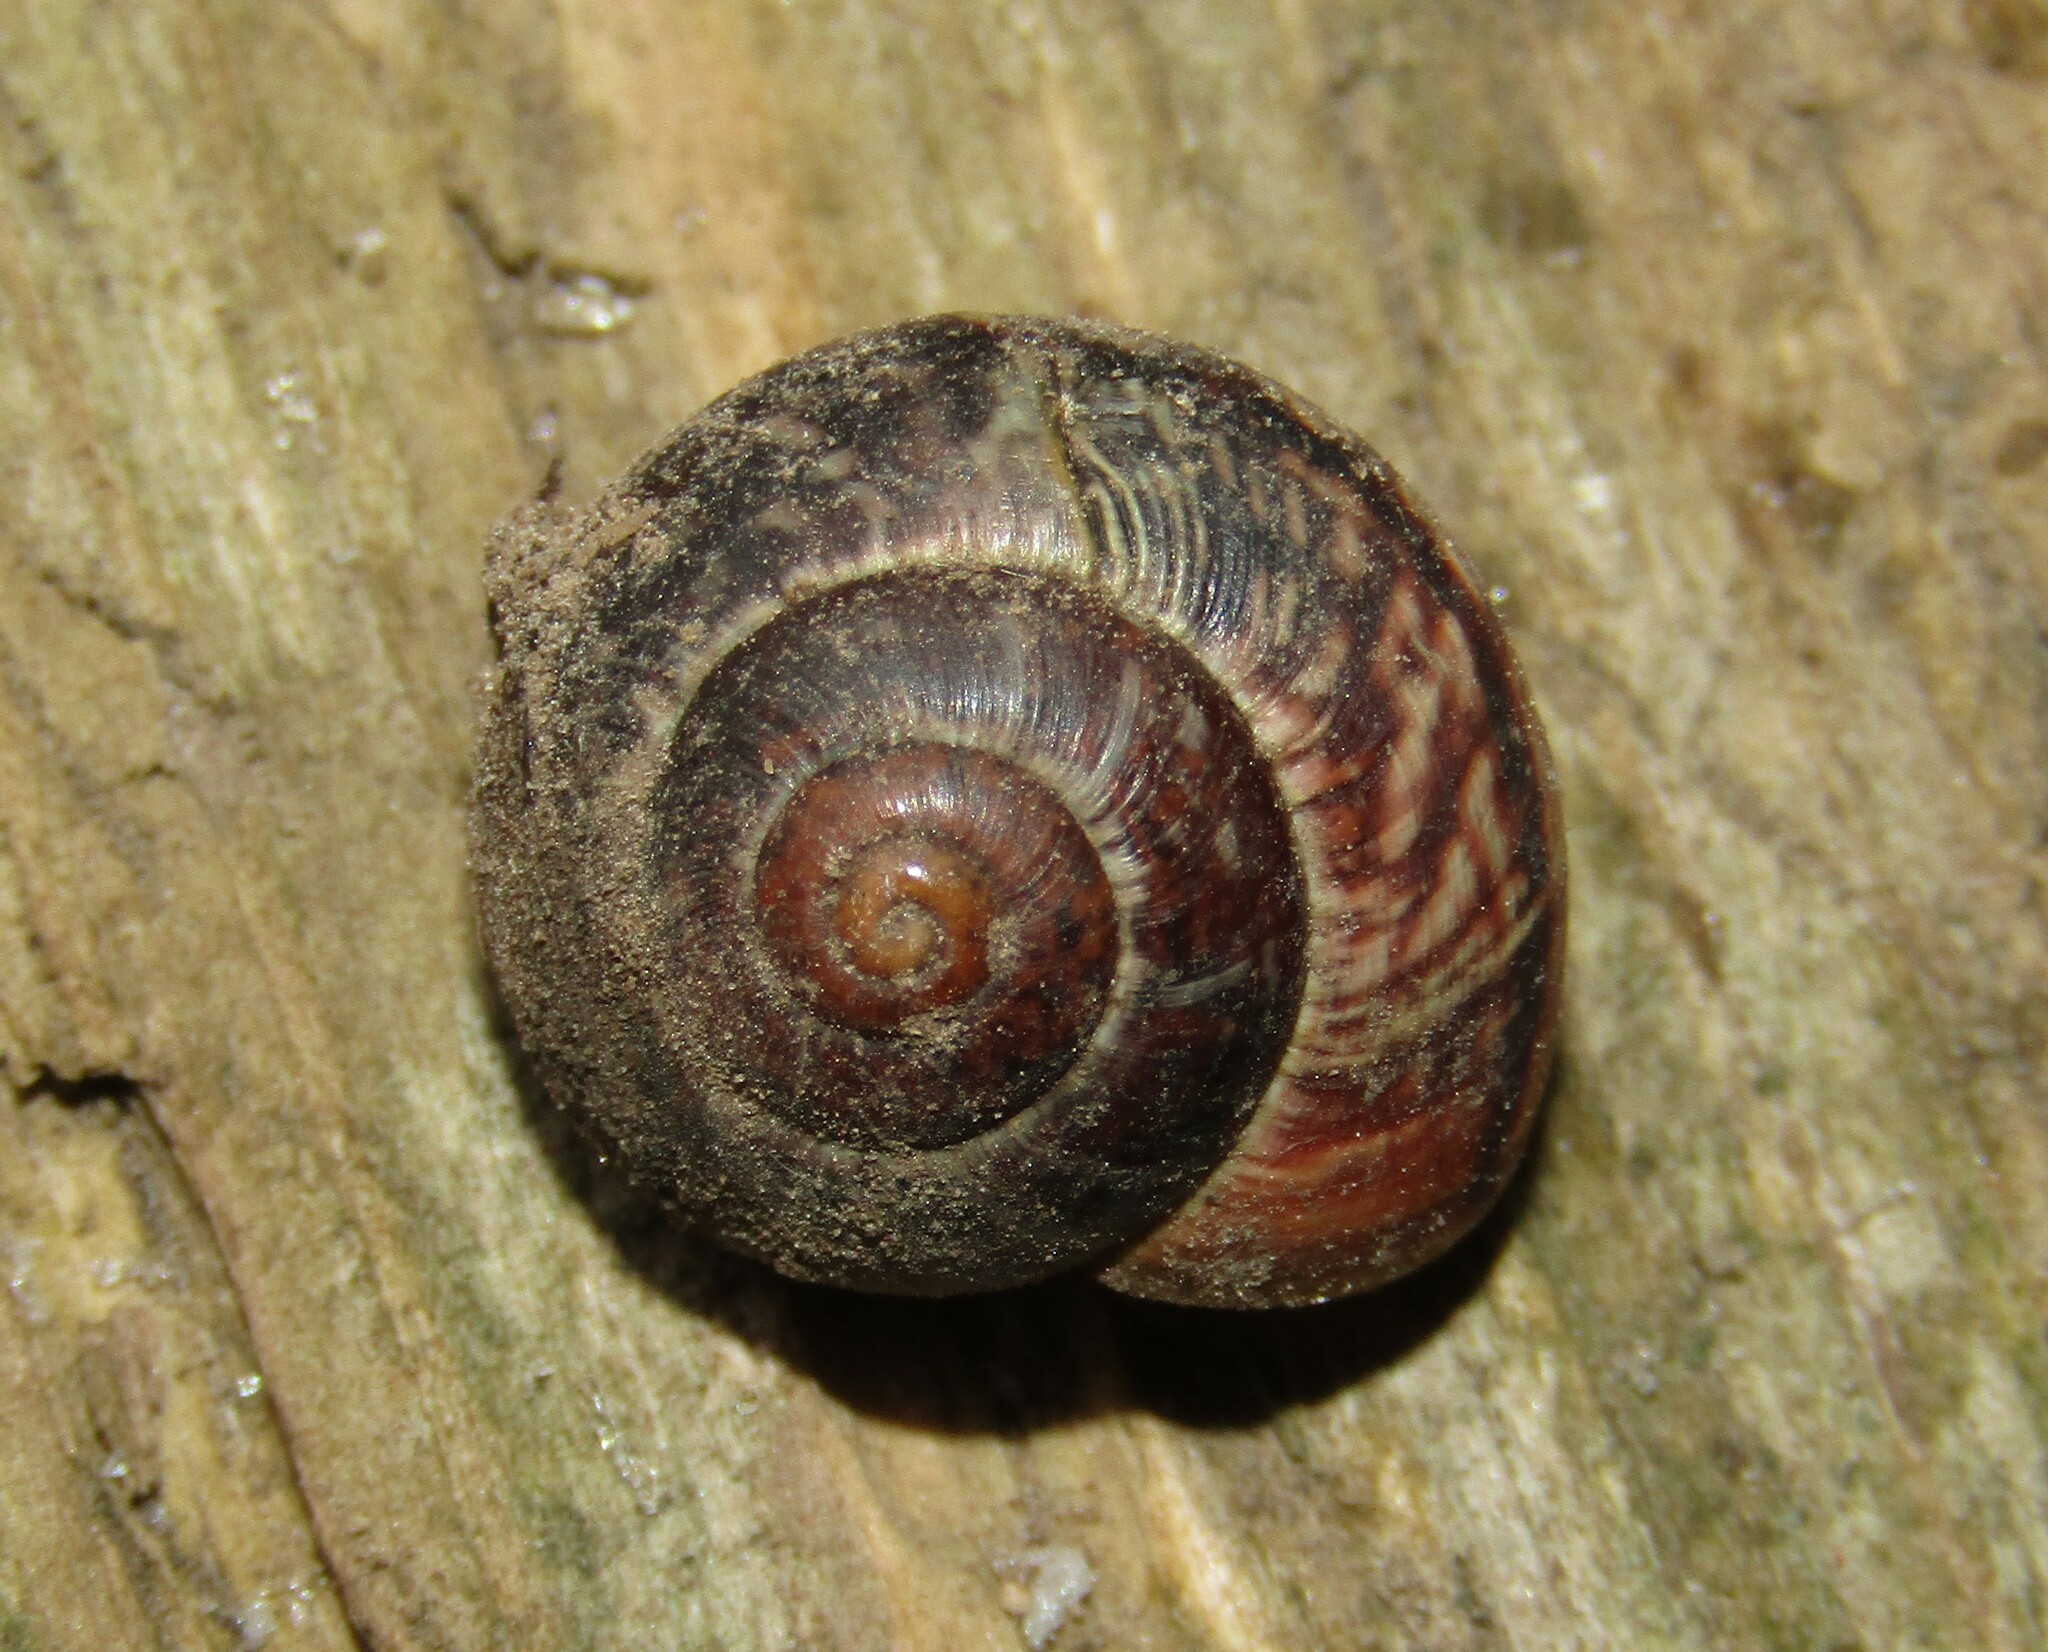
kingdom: Animalia
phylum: Mollusca
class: Gastropoda
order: Stylommatophora
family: Helicidae
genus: Arianta
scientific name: Arianta arbustorum
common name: Copse snail
